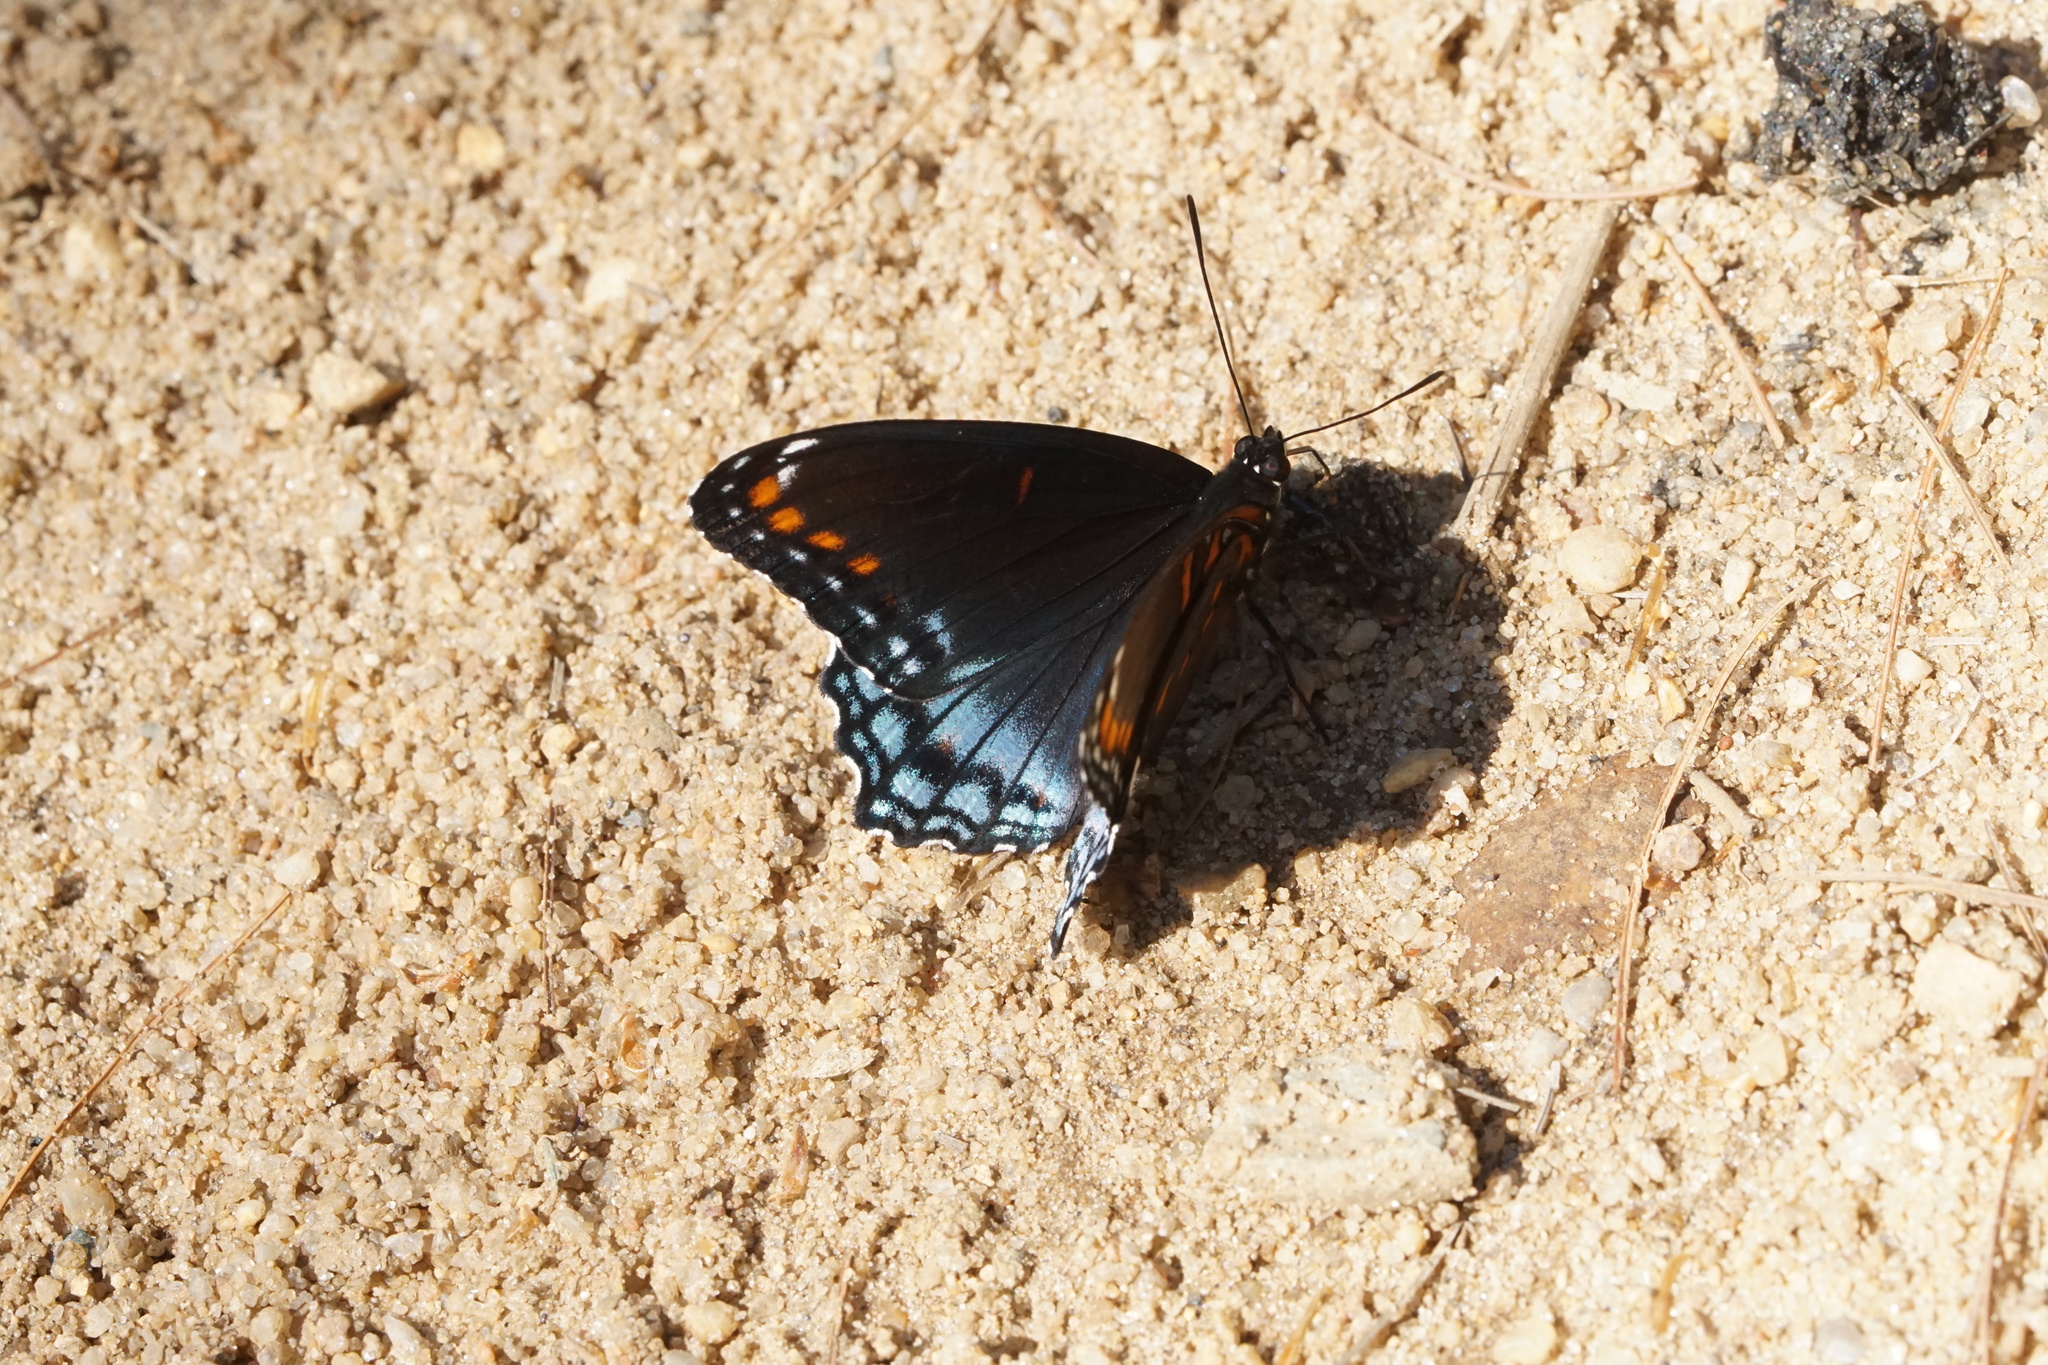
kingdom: Animalia
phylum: Arthropoda
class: Insecta
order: Lepidoptera
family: Nymphalidae
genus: Limenitis
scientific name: Limenitis arthemis
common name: Red-spotted admiral
